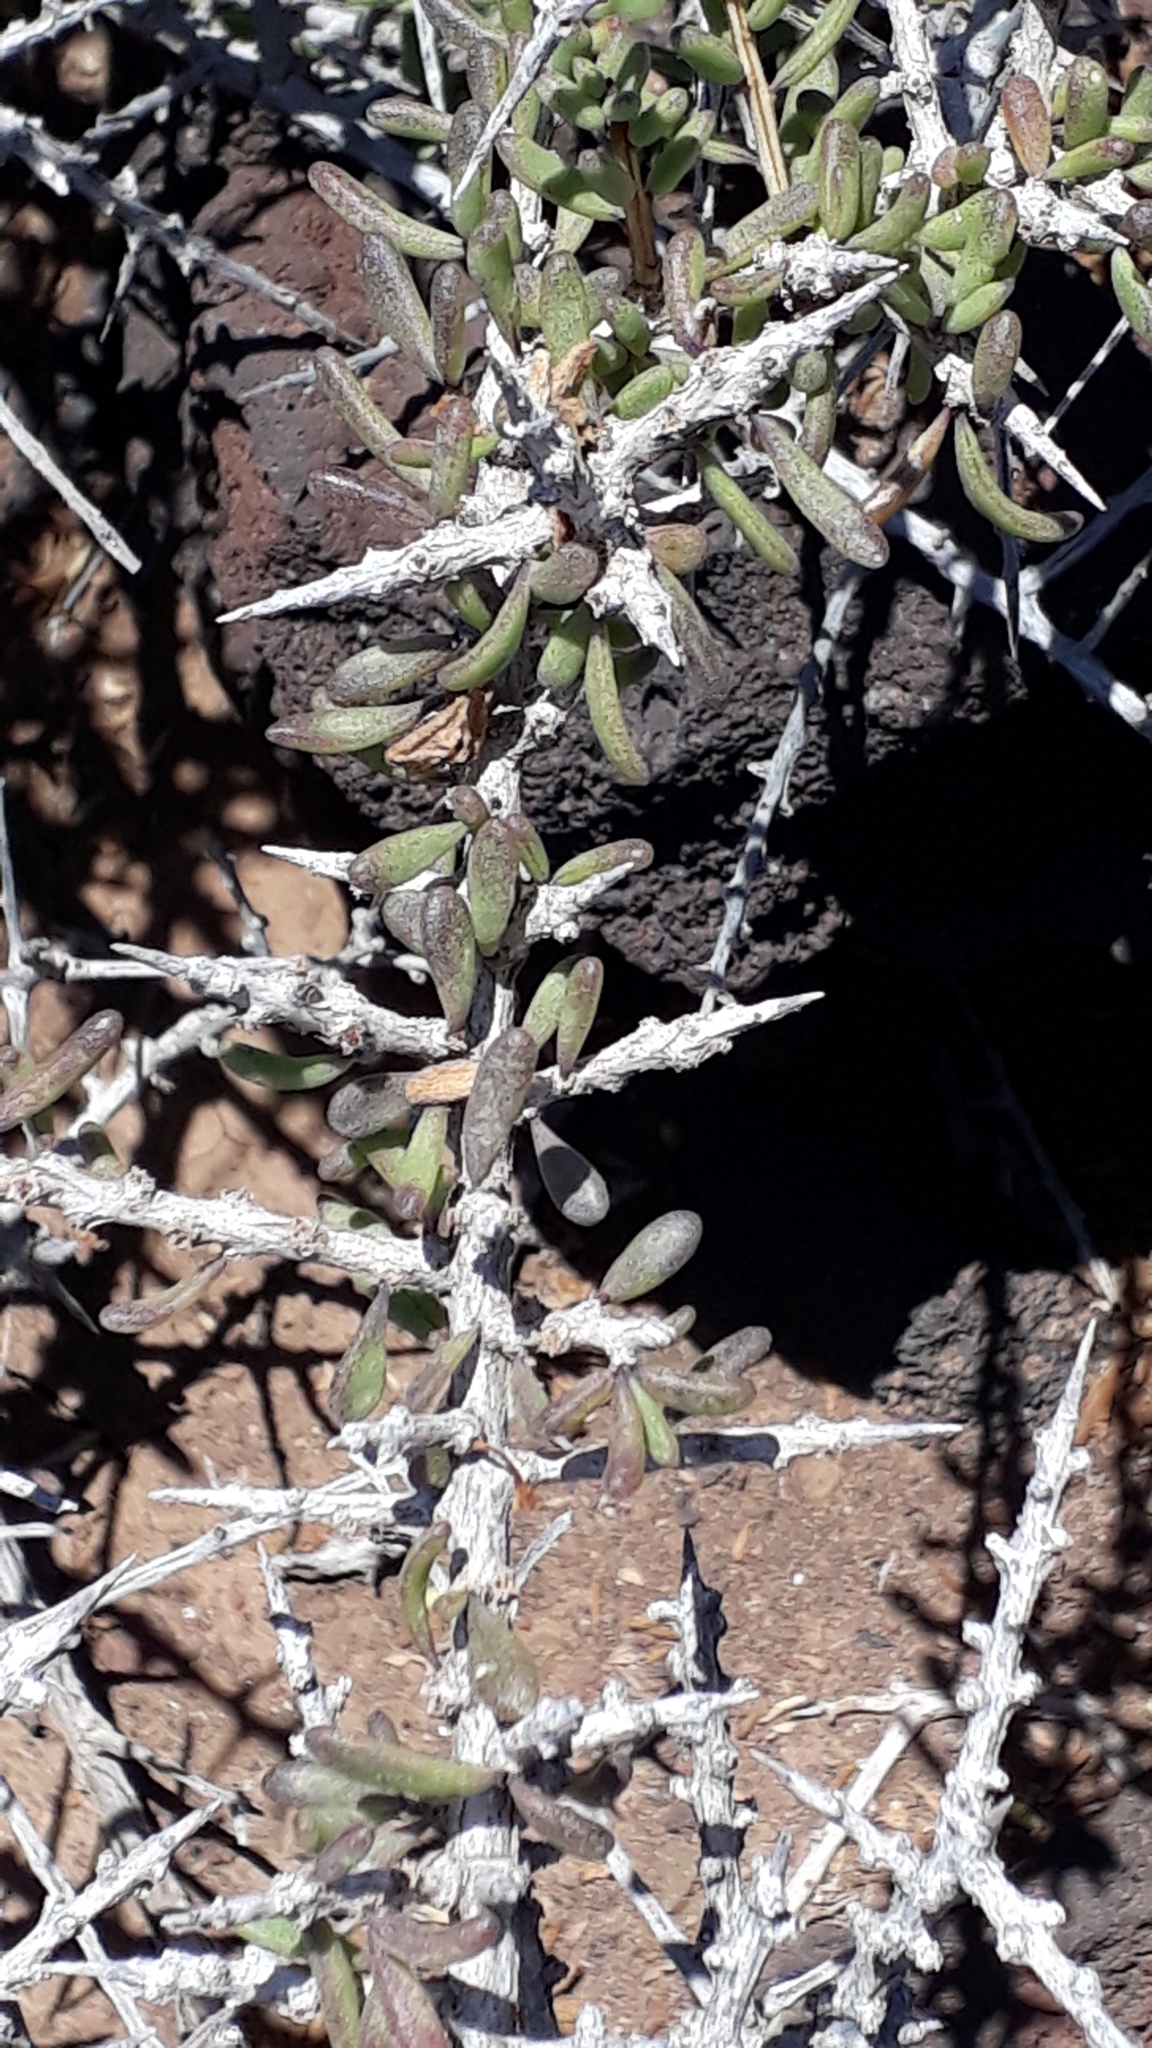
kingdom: Plantae
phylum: Tracheophyta
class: Magnoliopsida
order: Solanales
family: Solanaceae
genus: Lycium
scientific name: Lycium intricatum
